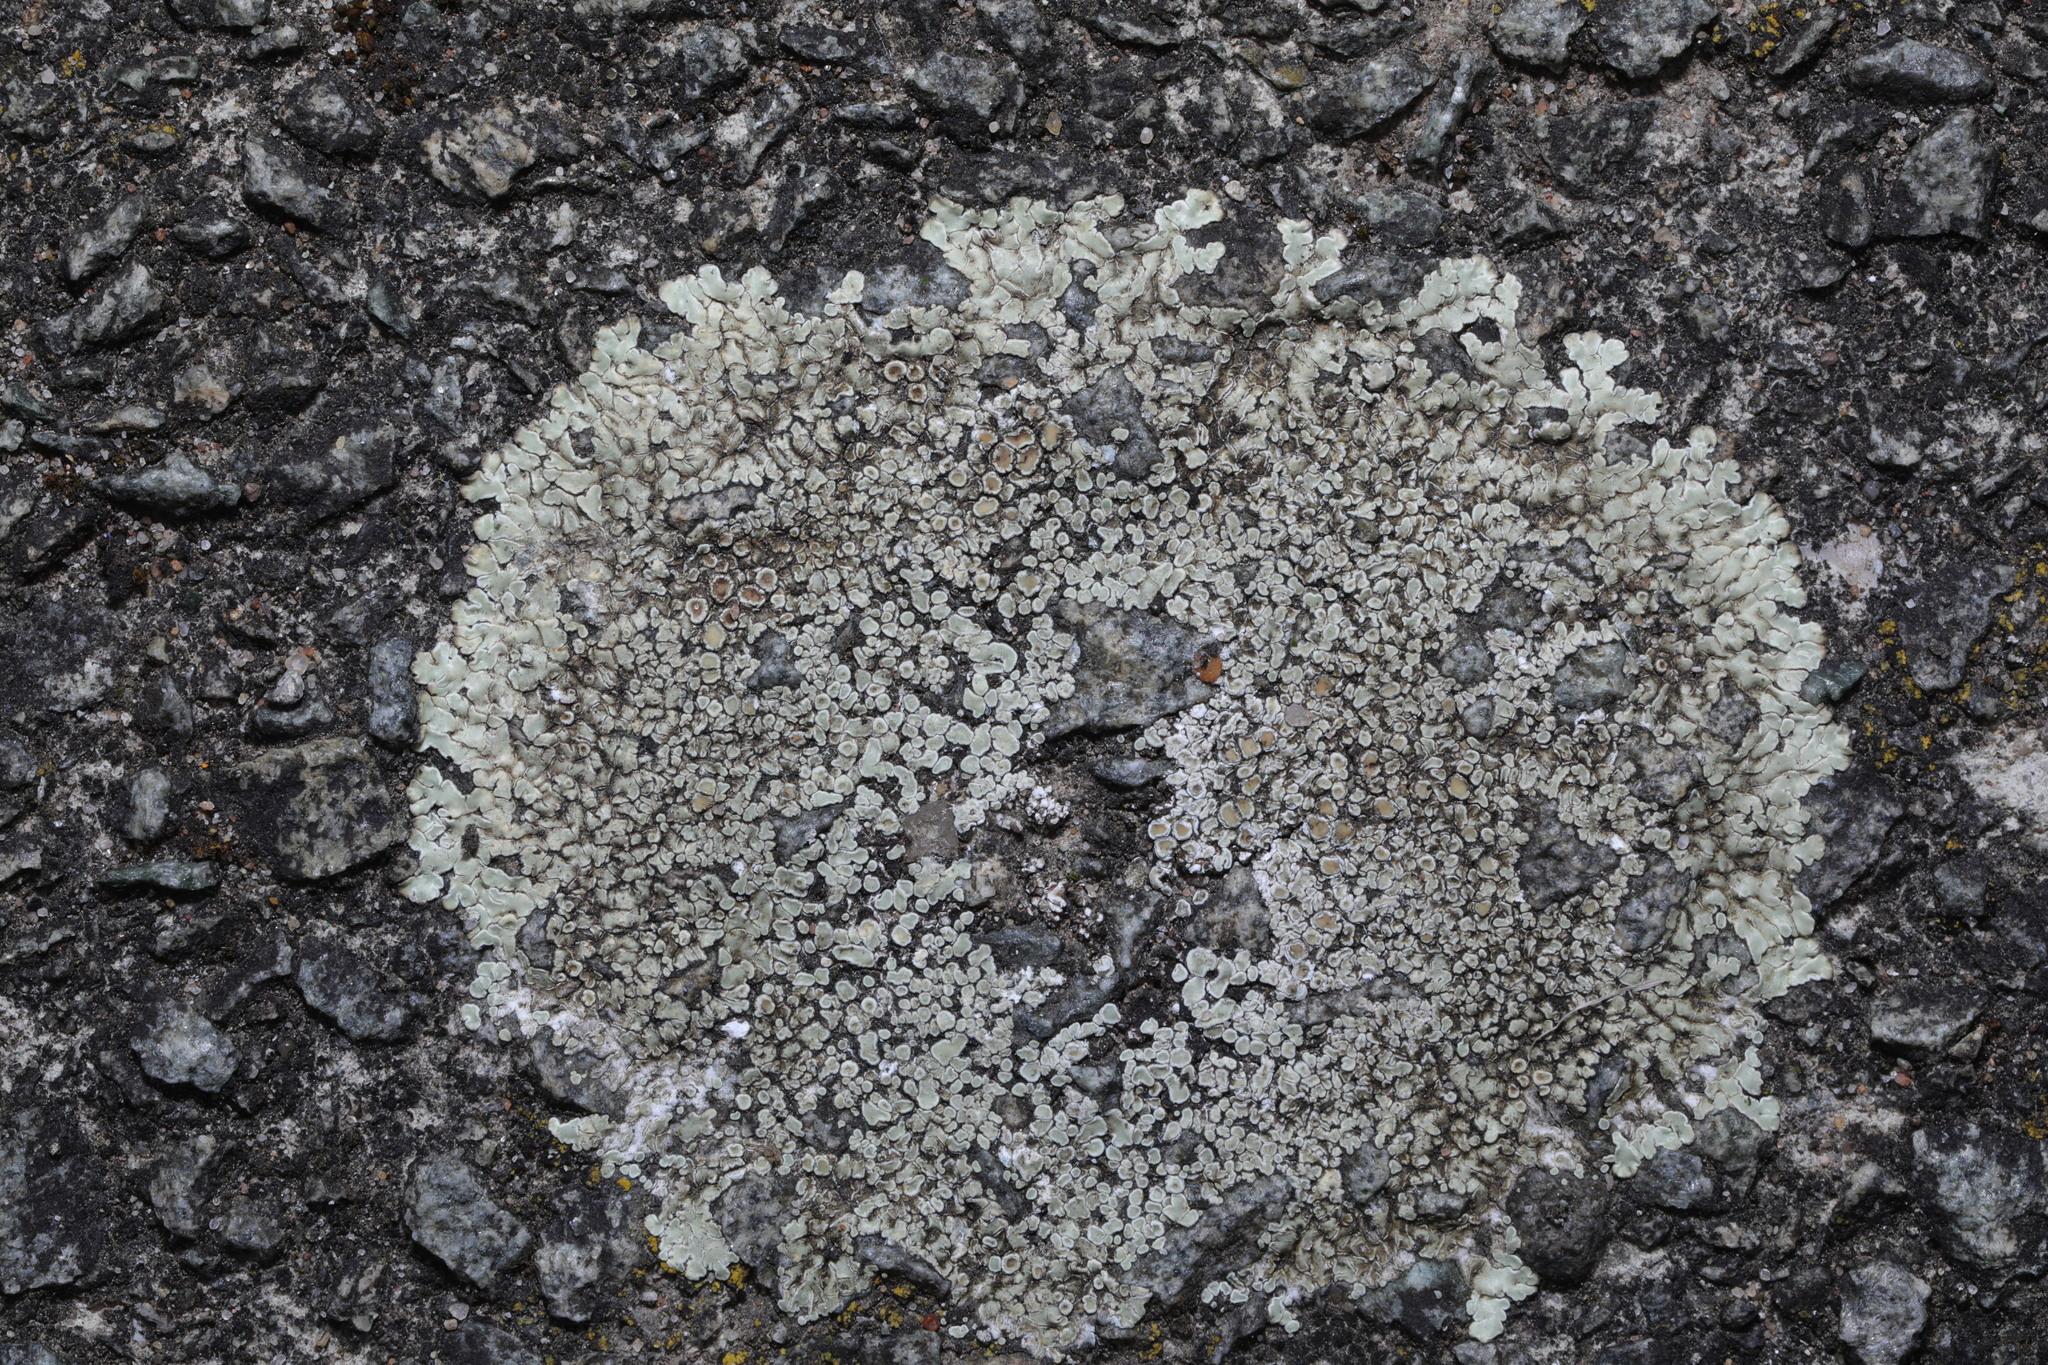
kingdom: Fungi
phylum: Ascomycota
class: Lecanoromycetes
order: Lecanorales
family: Lecanoraceae
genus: Protoparmeliopsis
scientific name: Protoparmeliopsis muralis
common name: Stonewall rim lichen
